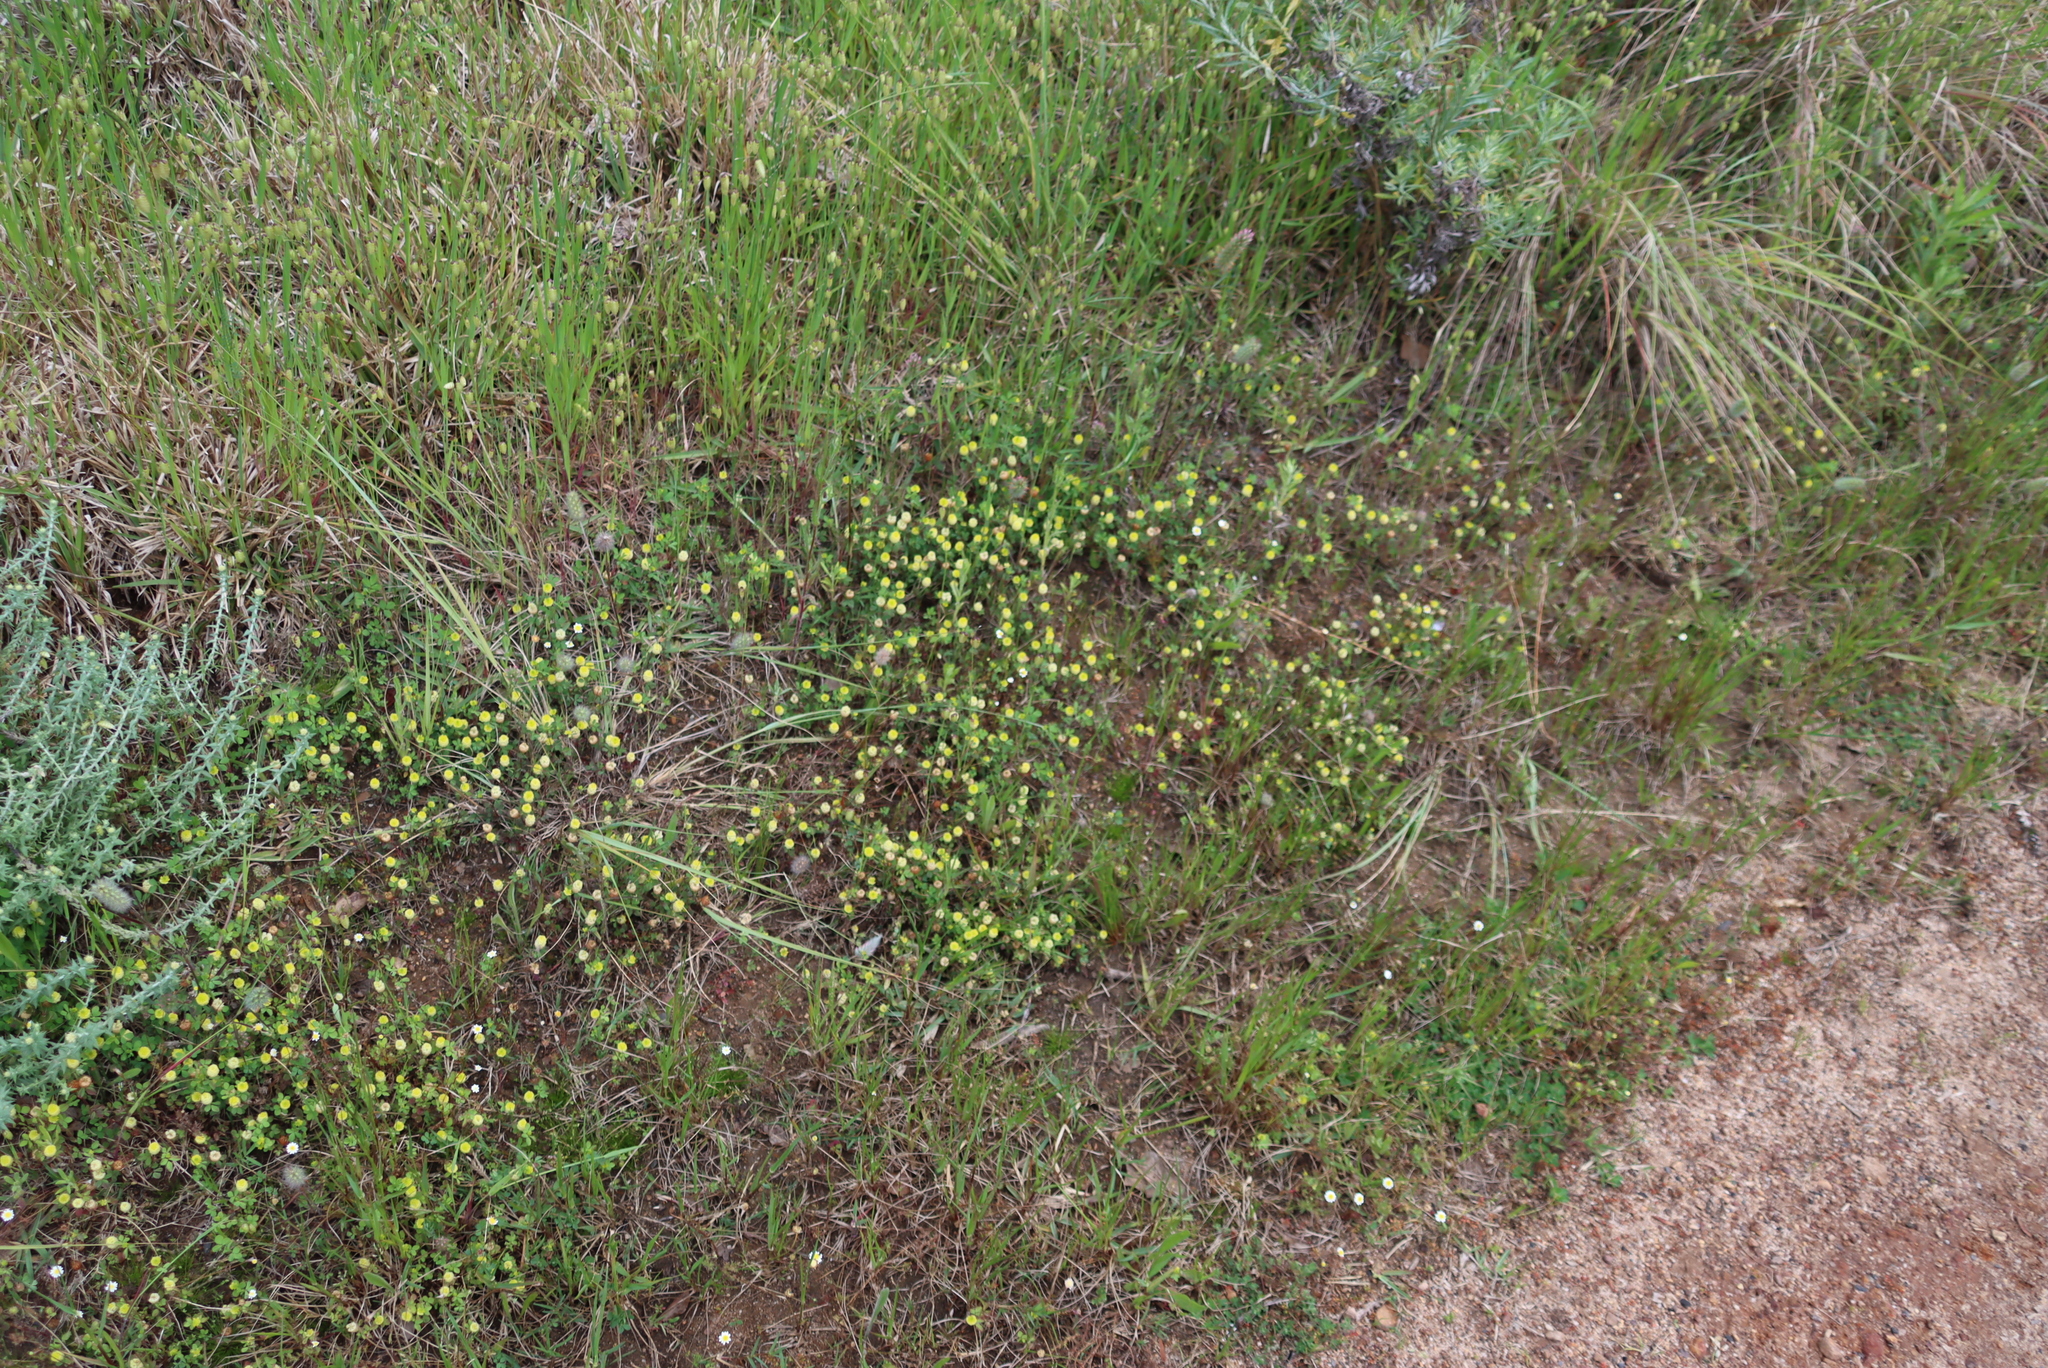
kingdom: Plantae
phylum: Tracheophyta
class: Magnoliopsida
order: Fabales
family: Fabaceae
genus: Trifolium
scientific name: Trifolium campestre
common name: Field clover
